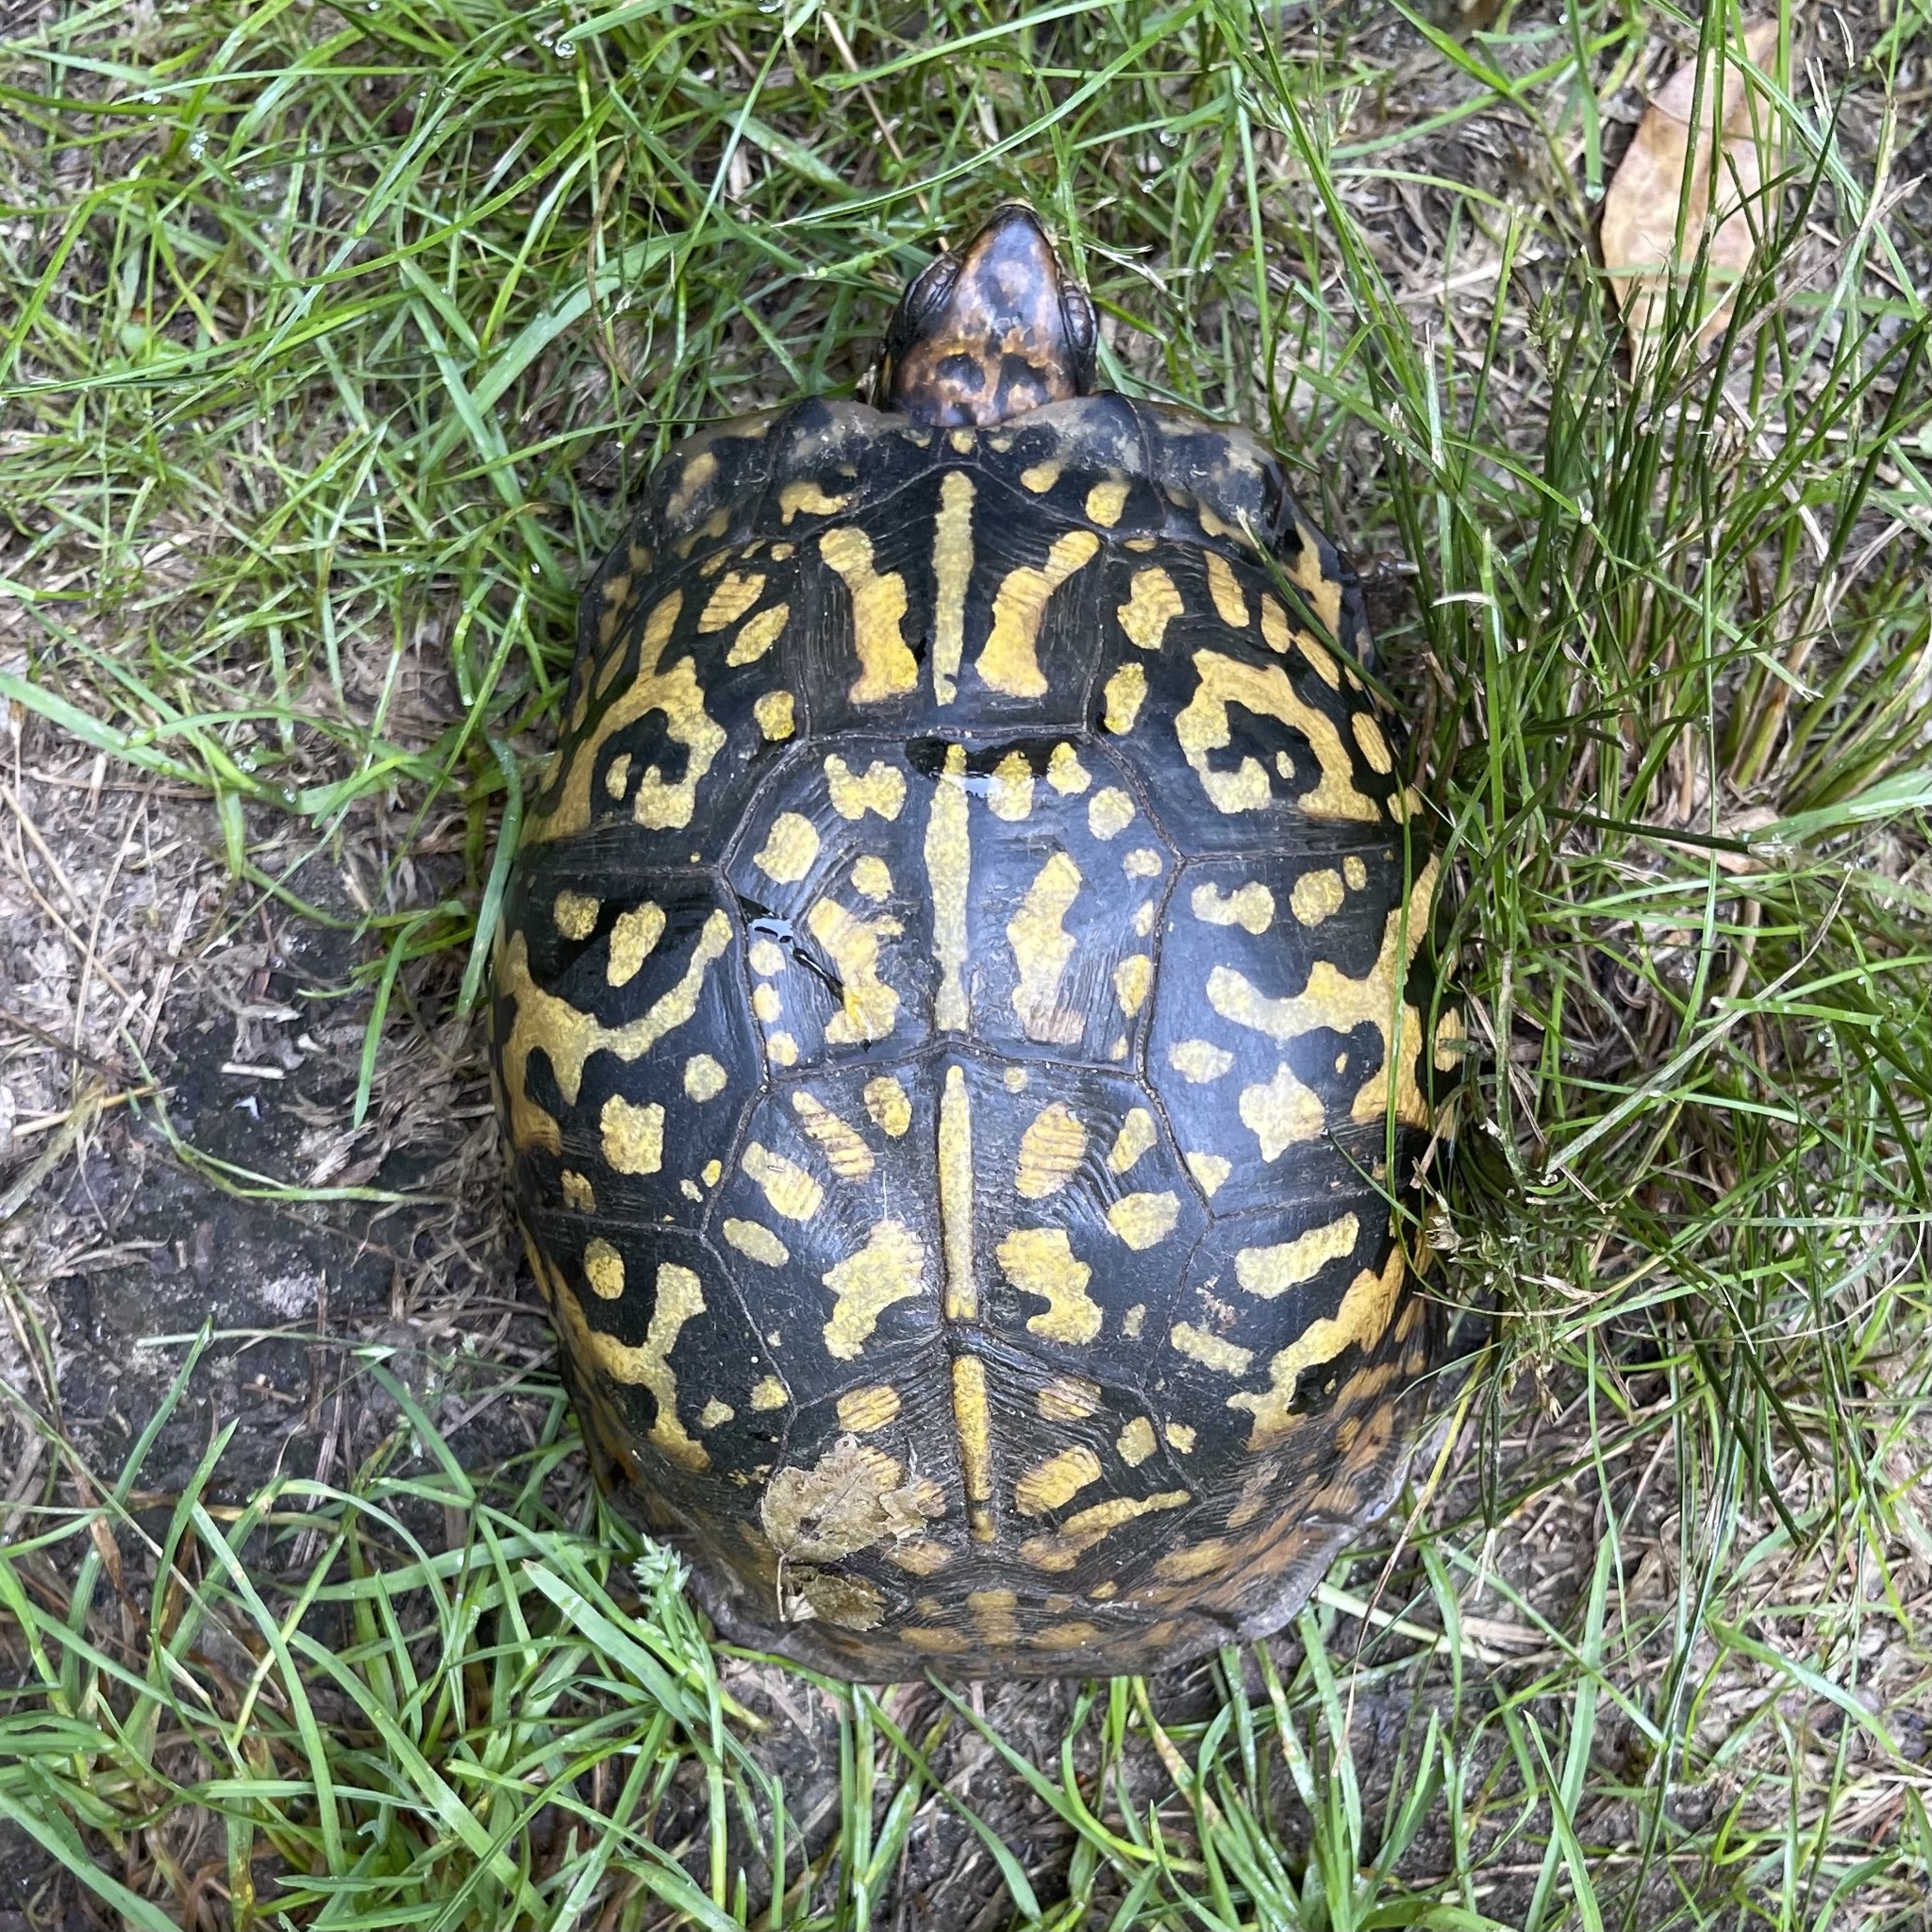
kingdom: Animalia
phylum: Chordata
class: Testudines
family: Emydidae
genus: Terrapene
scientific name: Terrapene carolina
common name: Common box turtle
